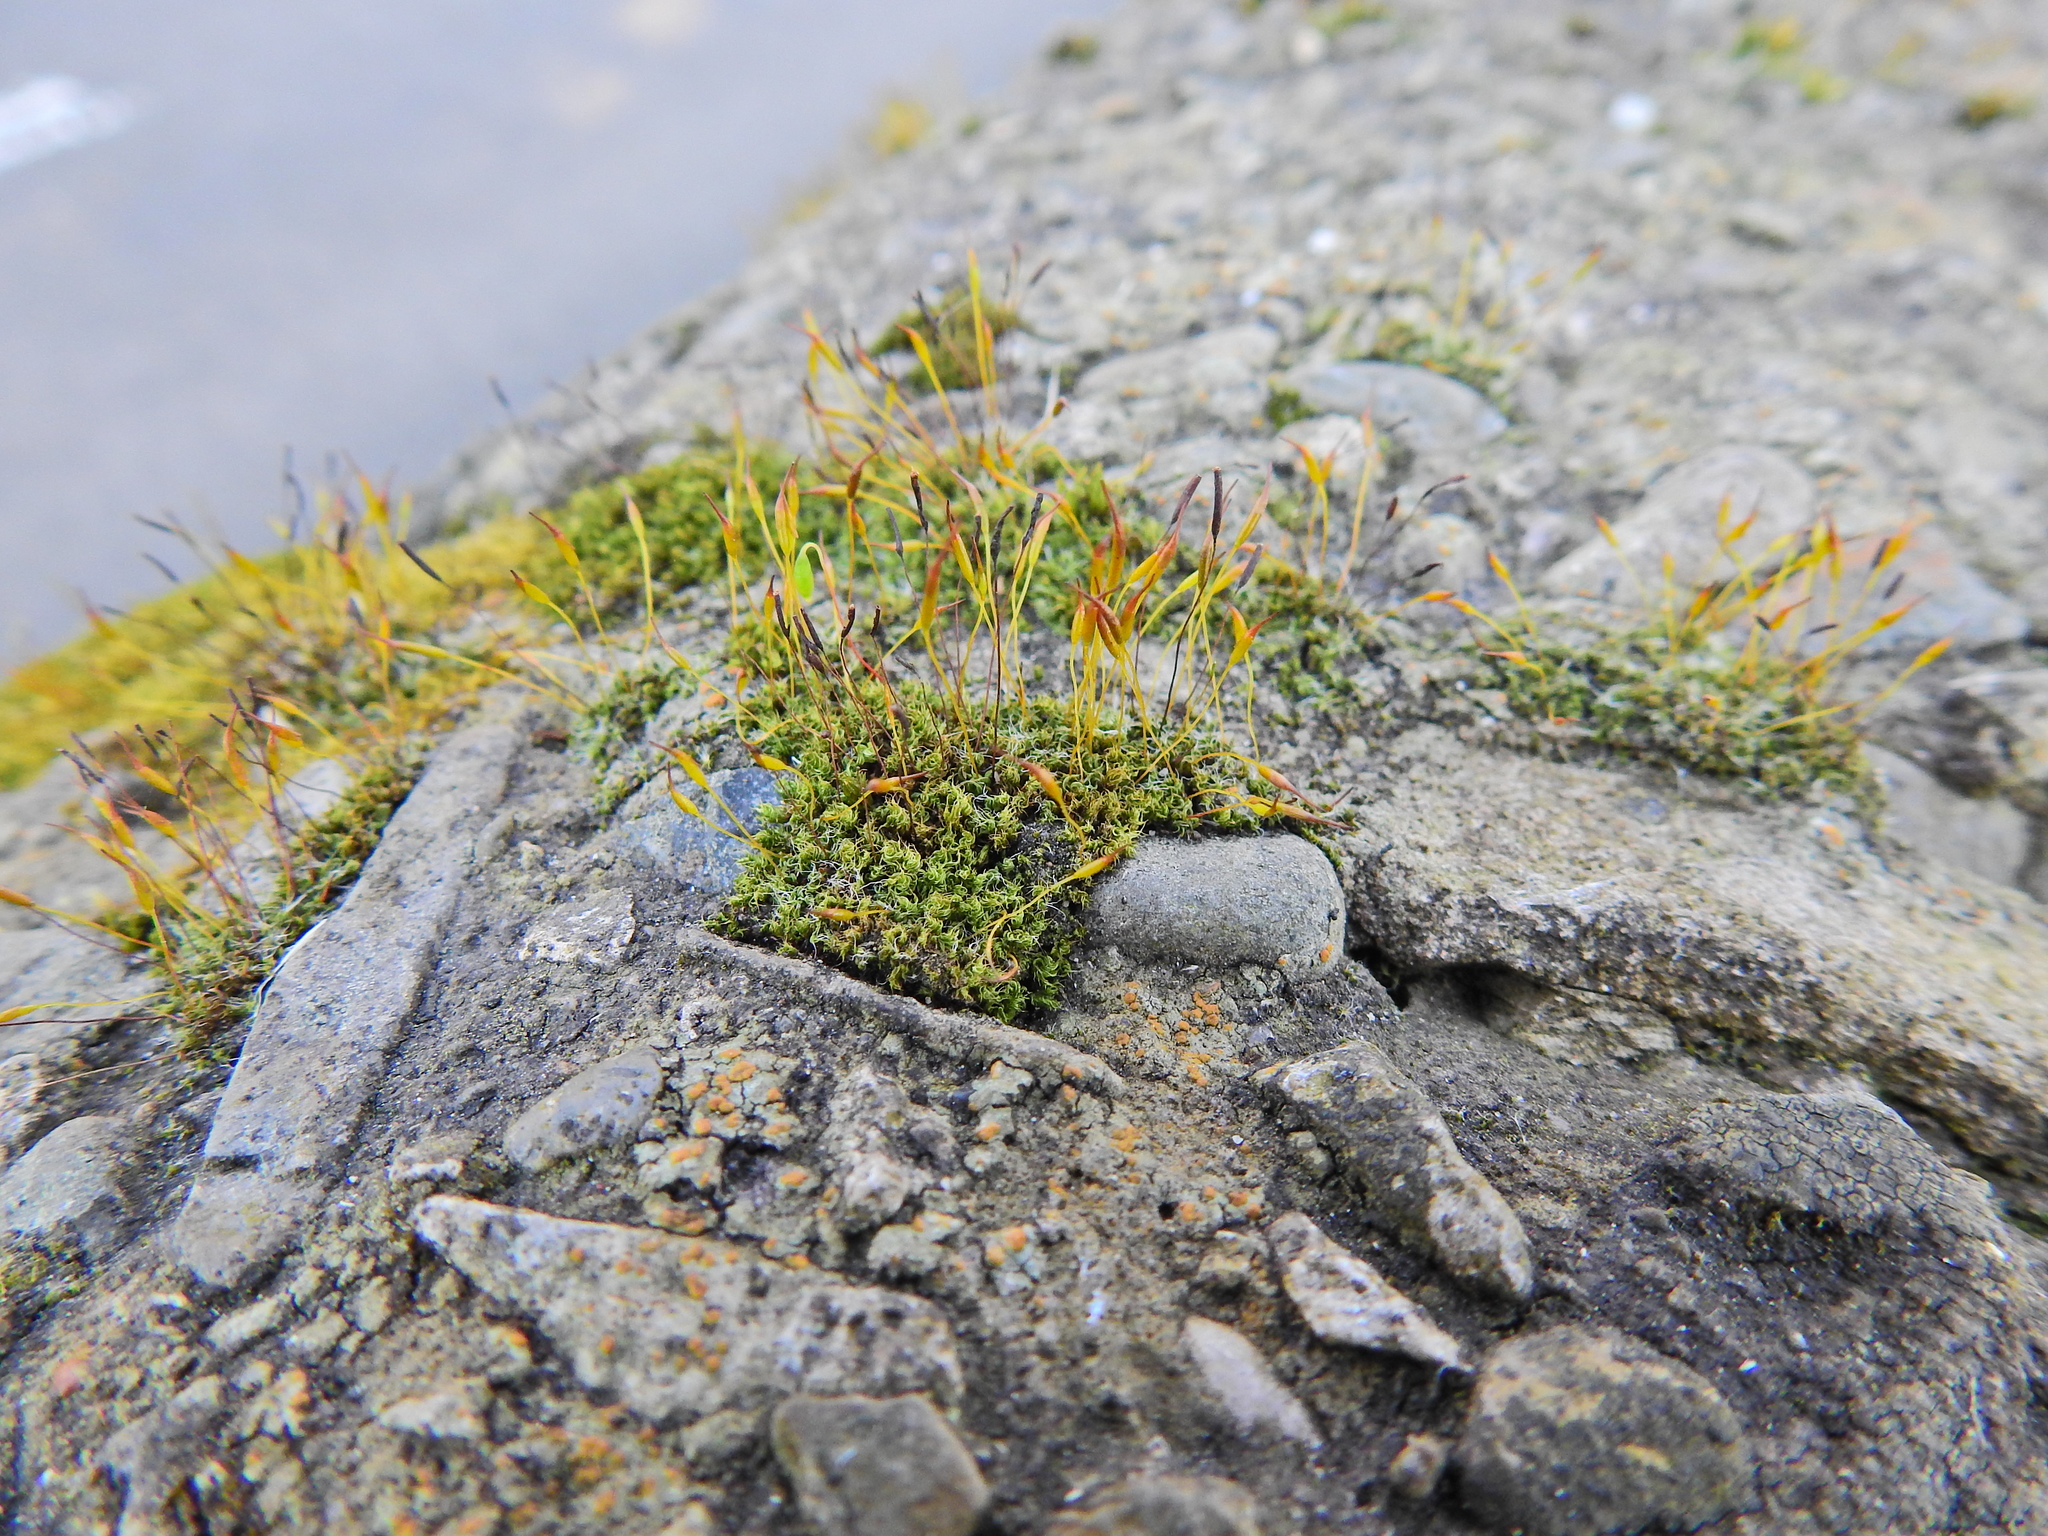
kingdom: Plantae
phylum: Bryophyta
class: Bryopsida
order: Pottiales
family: Pottiaceae
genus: Tortula
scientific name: Tortula muralis
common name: Wall screw-moss
